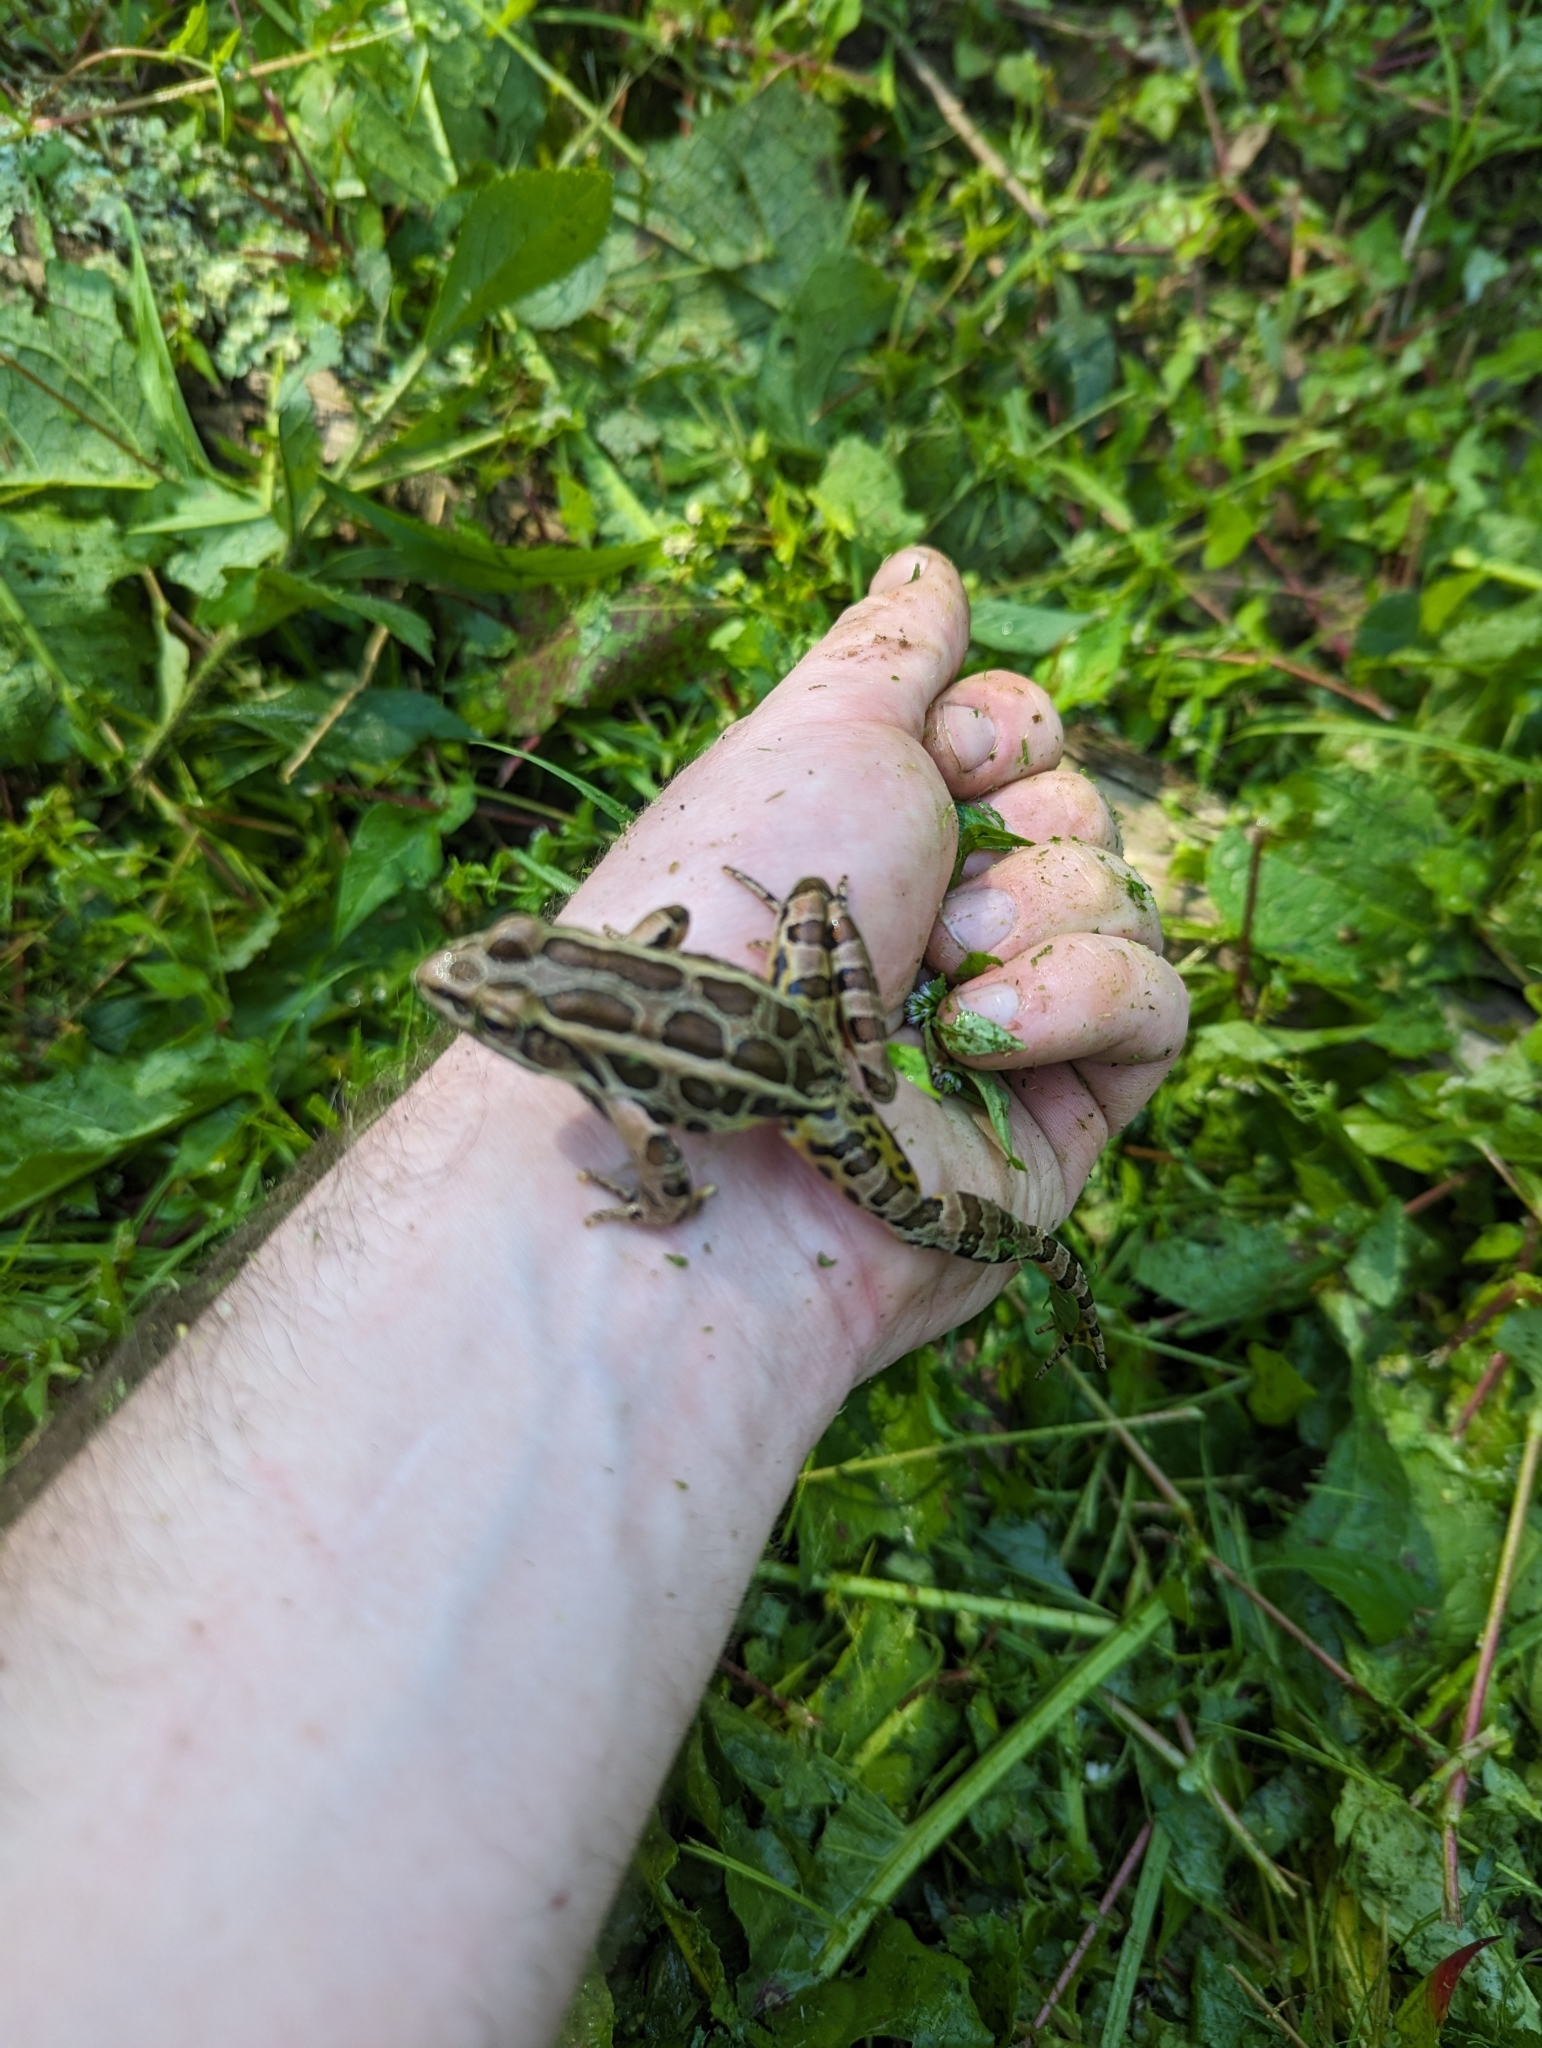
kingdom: Animalia
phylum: Chordata
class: Amphibia
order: Anura
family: Ranidae
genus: Lithobates
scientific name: Lithobates palustris
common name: Pickerel frog
